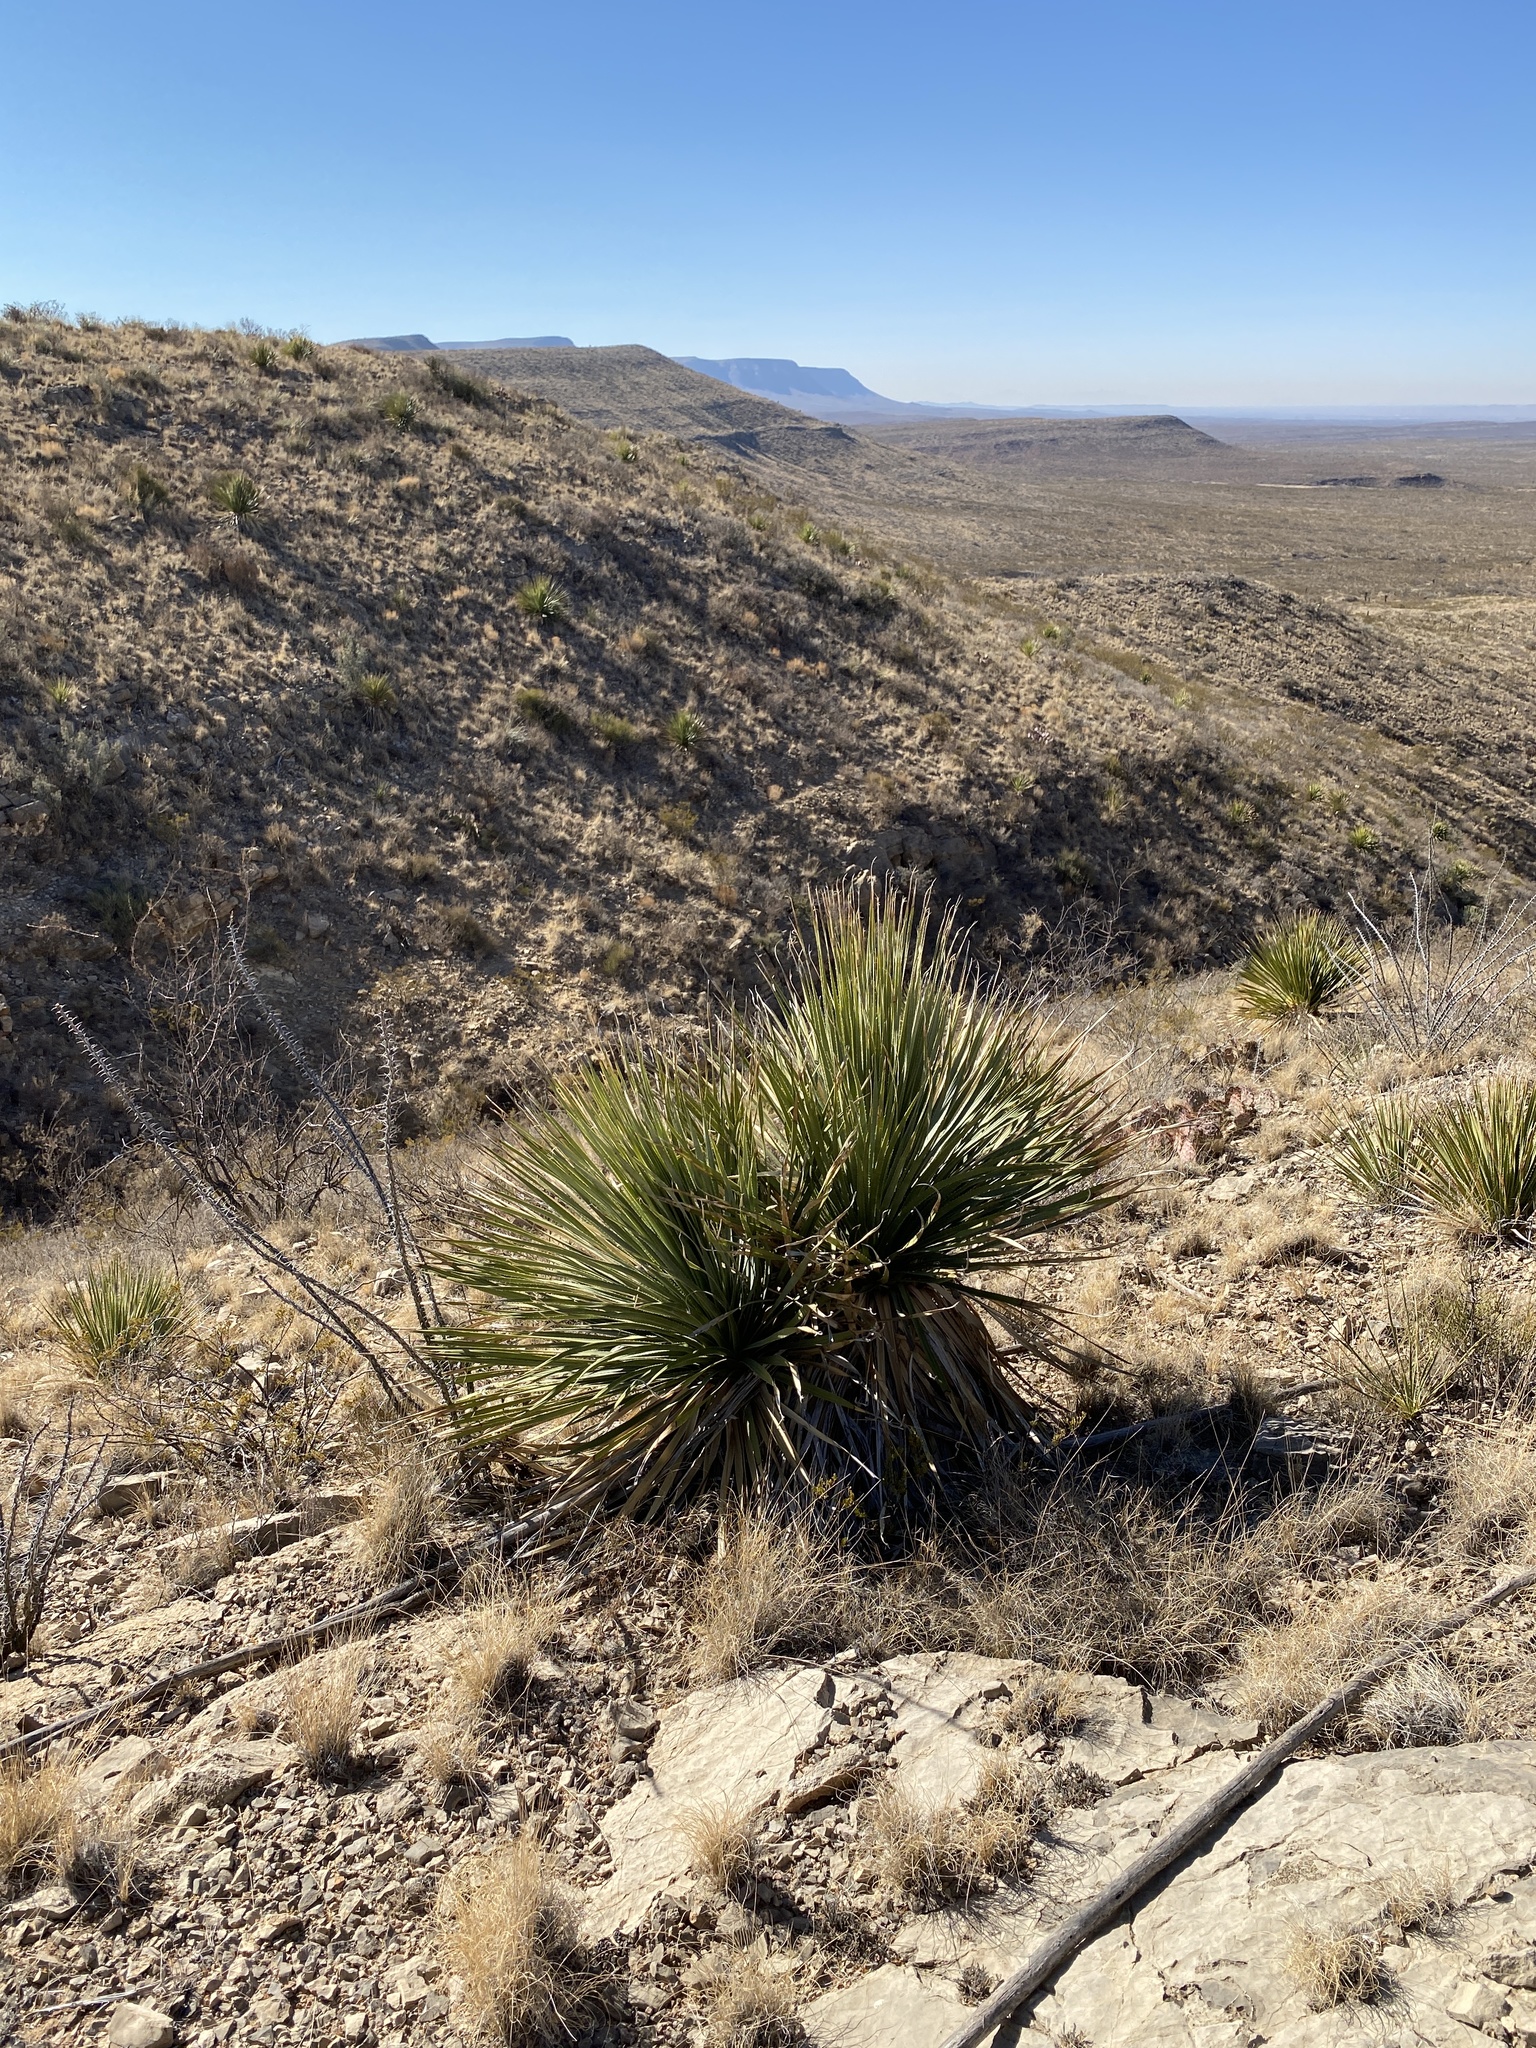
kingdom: Plantae
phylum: Tracheophyta
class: Liliopsida
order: Asparagales
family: Asparagaceae
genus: Dasylirion
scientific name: Dasylirion wheeleri
